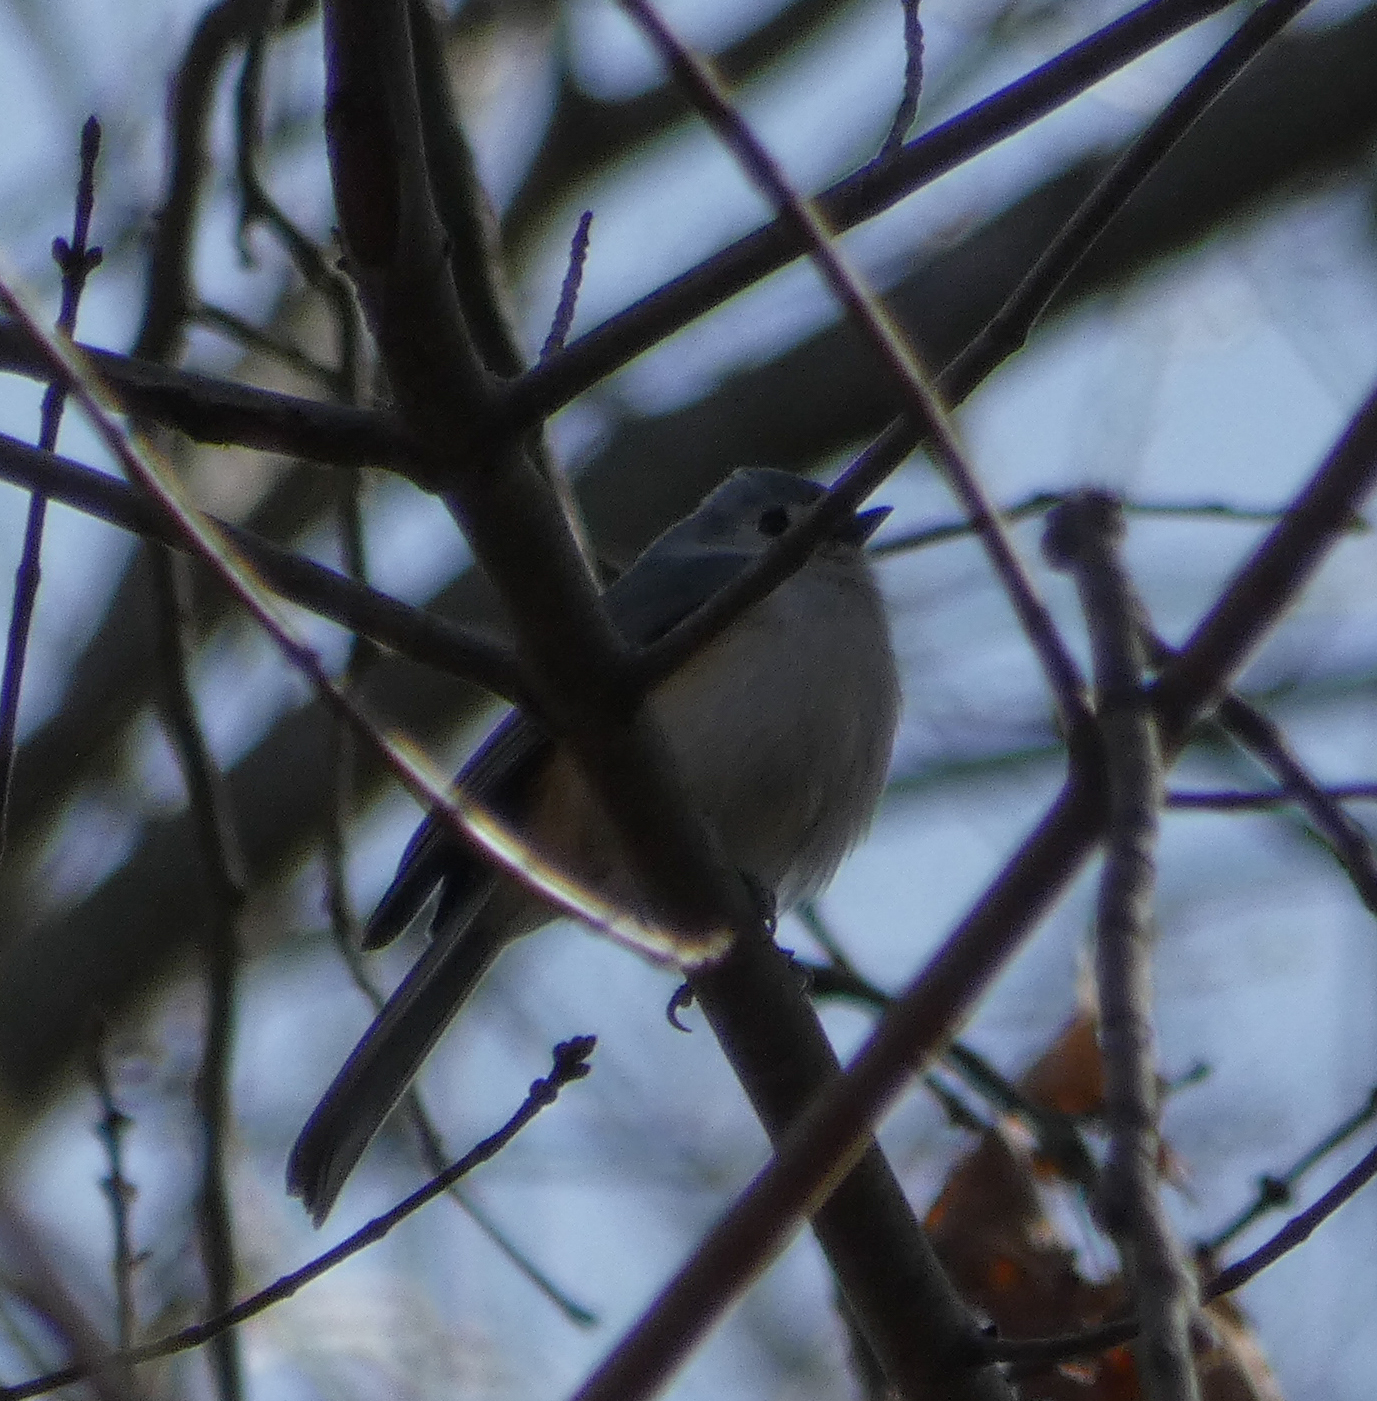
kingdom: Animalia
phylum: Chordata
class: Aves
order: Passeriformes
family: Paridae
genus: Baeolophus
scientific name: Baeolophus bicolor
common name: Tufted titmouse
